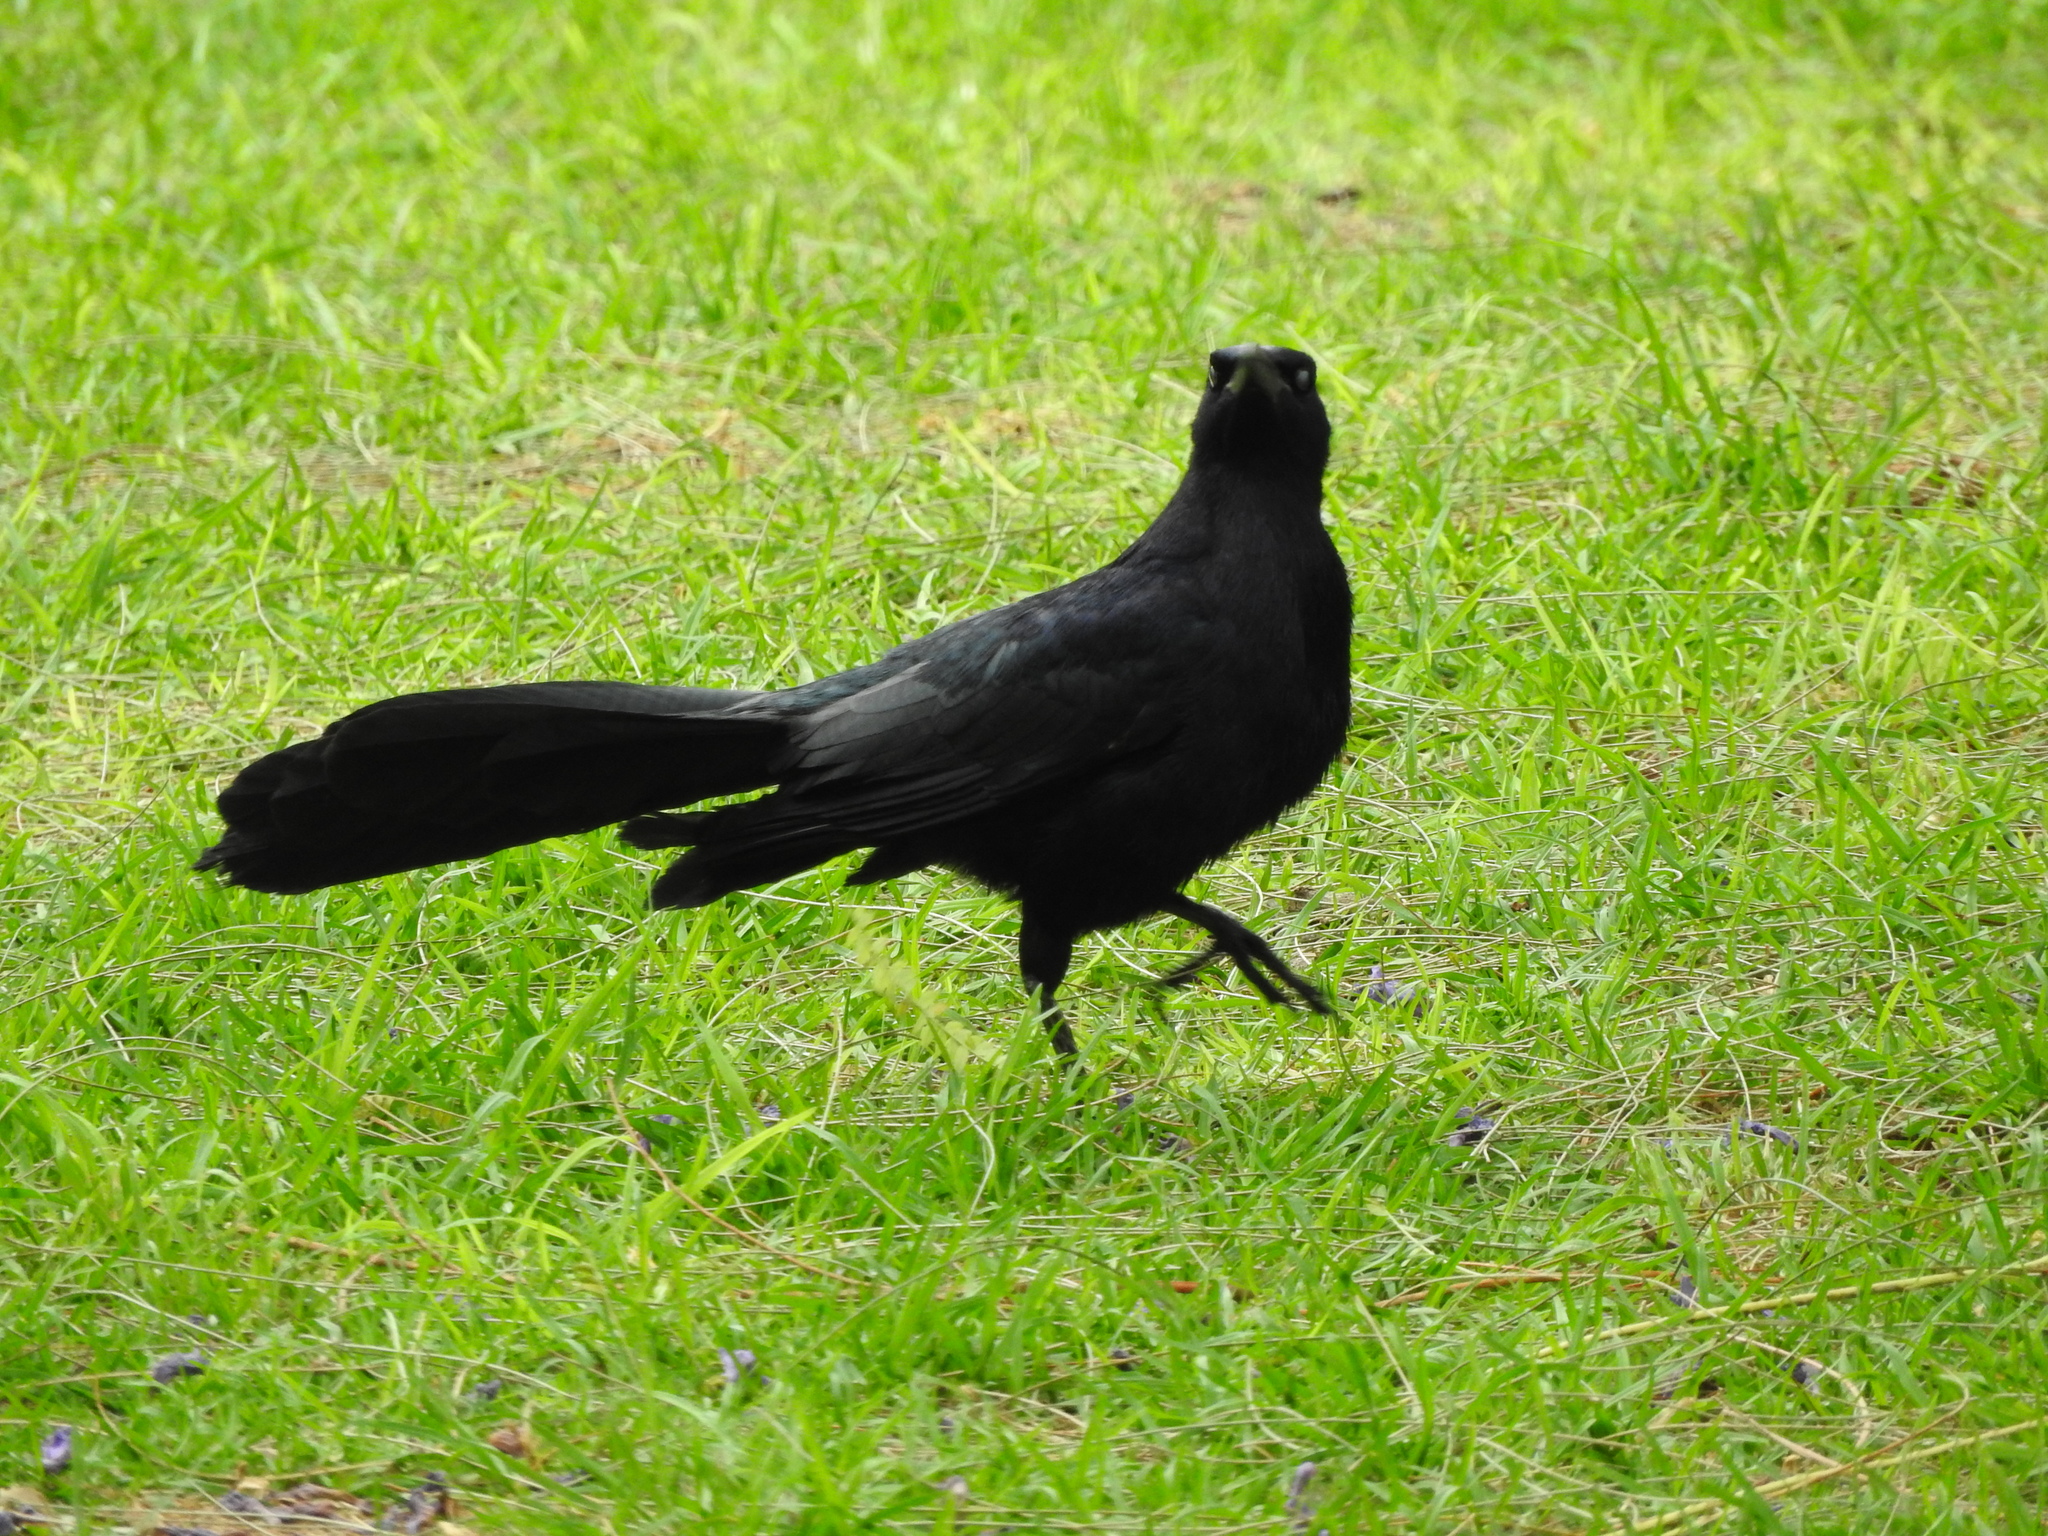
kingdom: Animalia
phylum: Chordata
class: Aves
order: Passeriformes
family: Icteridae
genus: Quiscalus
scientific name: Quiscalus mexicanus
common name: Great-tailed grackle
